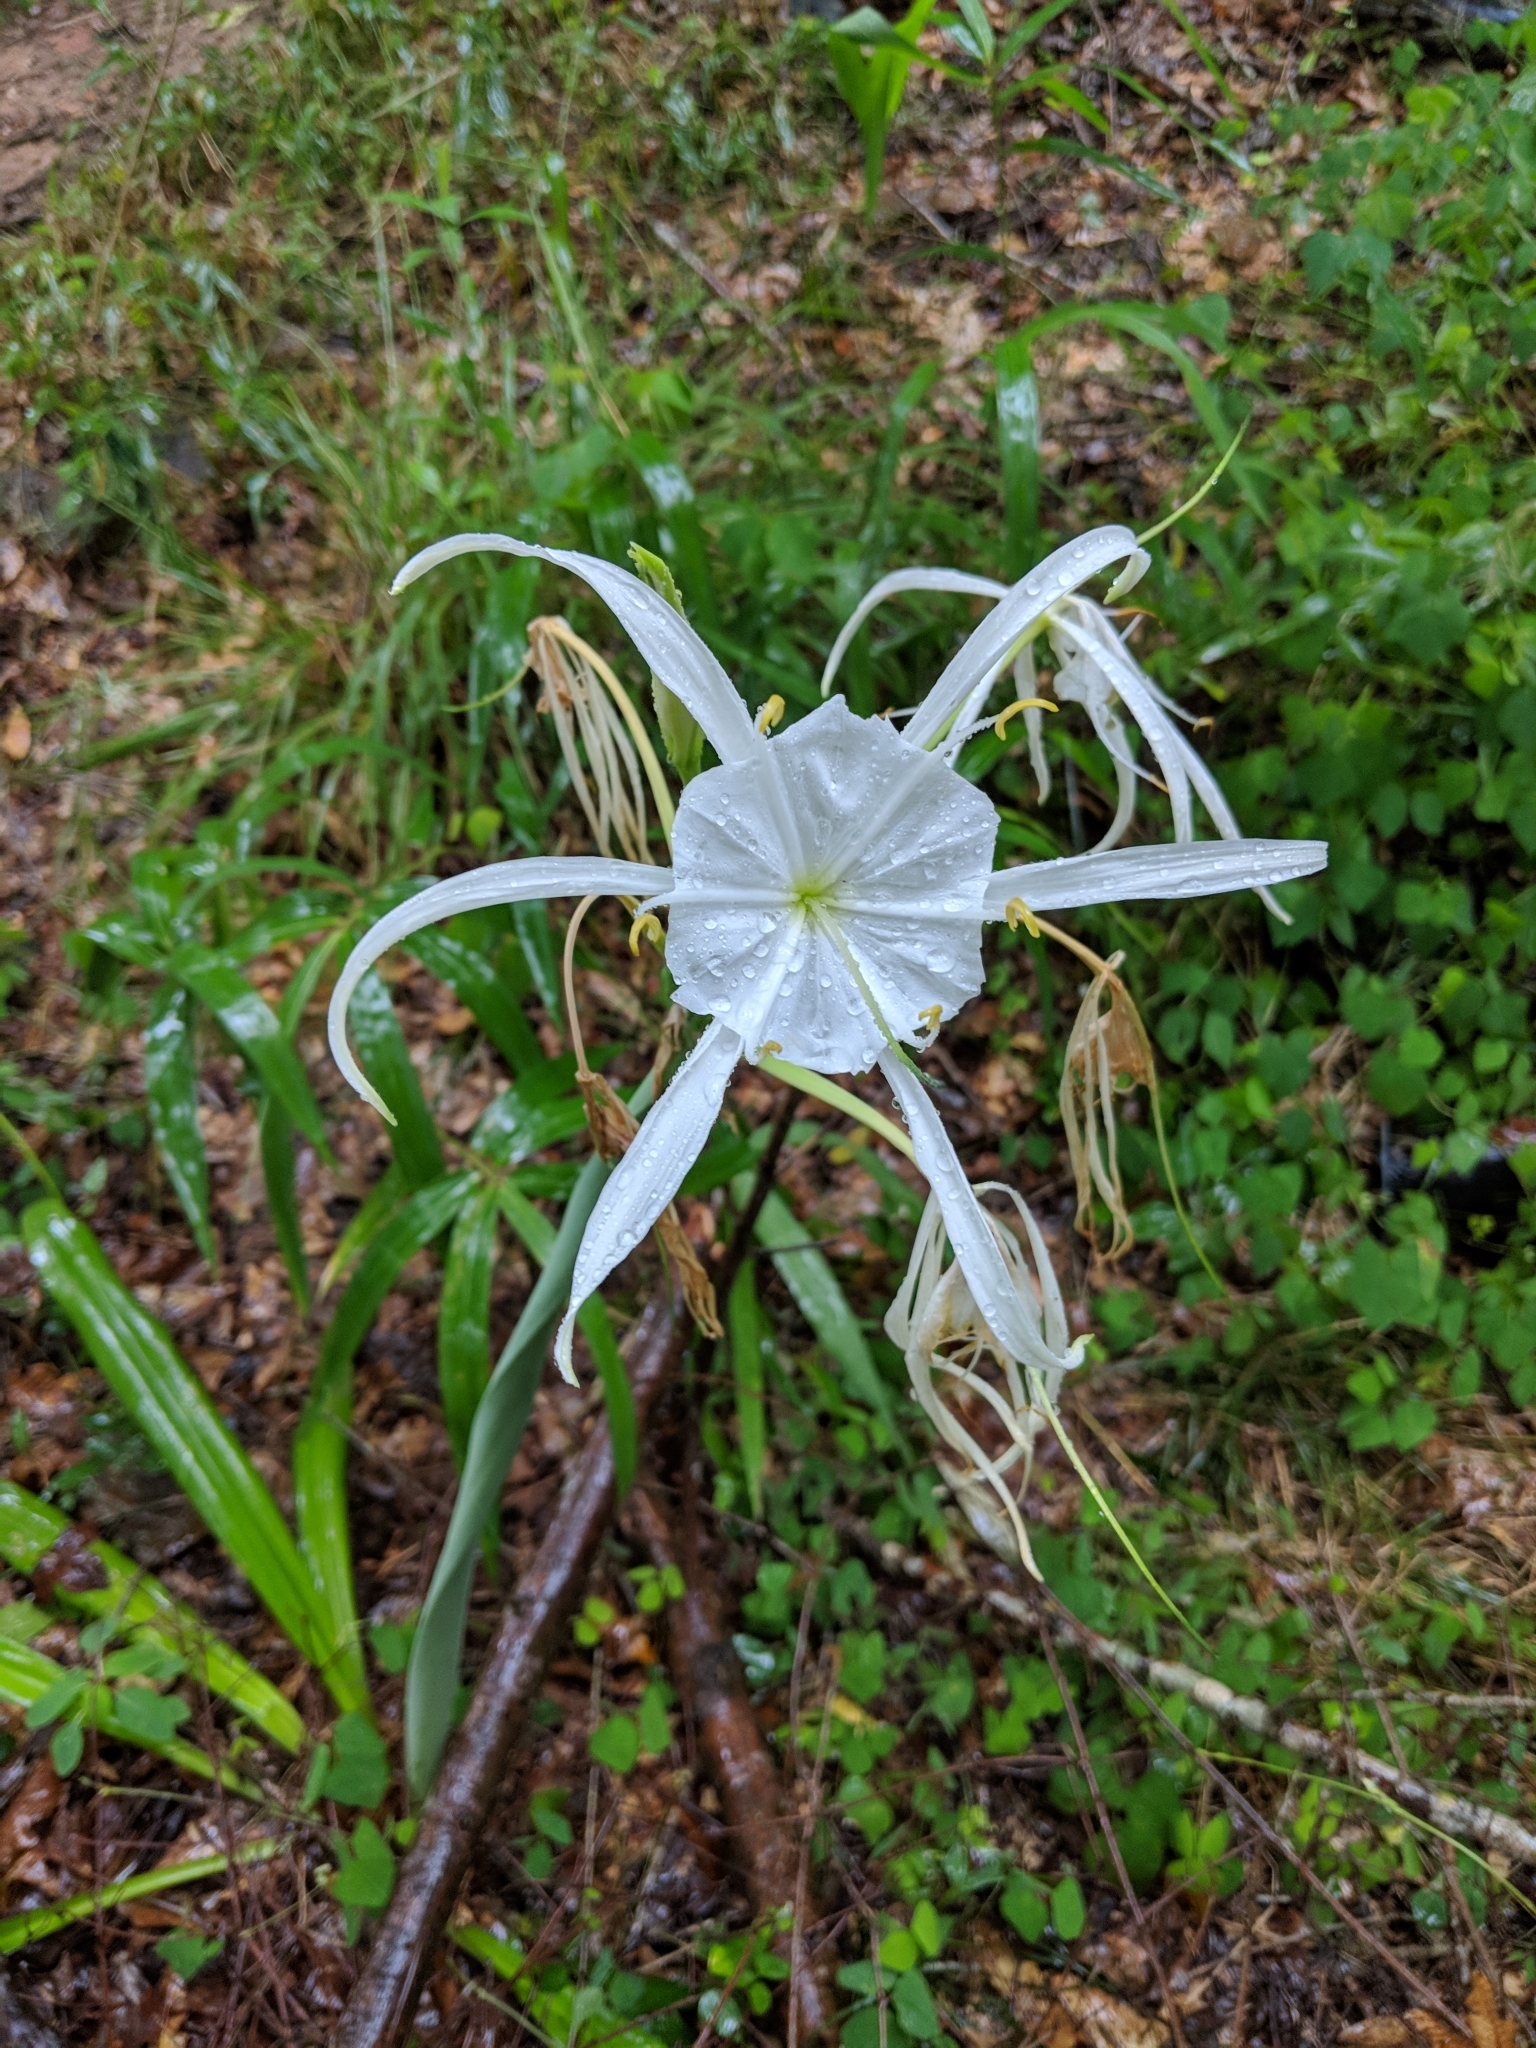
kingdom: Plantae
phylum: Tracheophyta
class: Liliopsida
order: Asparagales
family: Amaryllidaceae
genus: Hymenocallis
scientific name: Hymenocallis occidentalis
